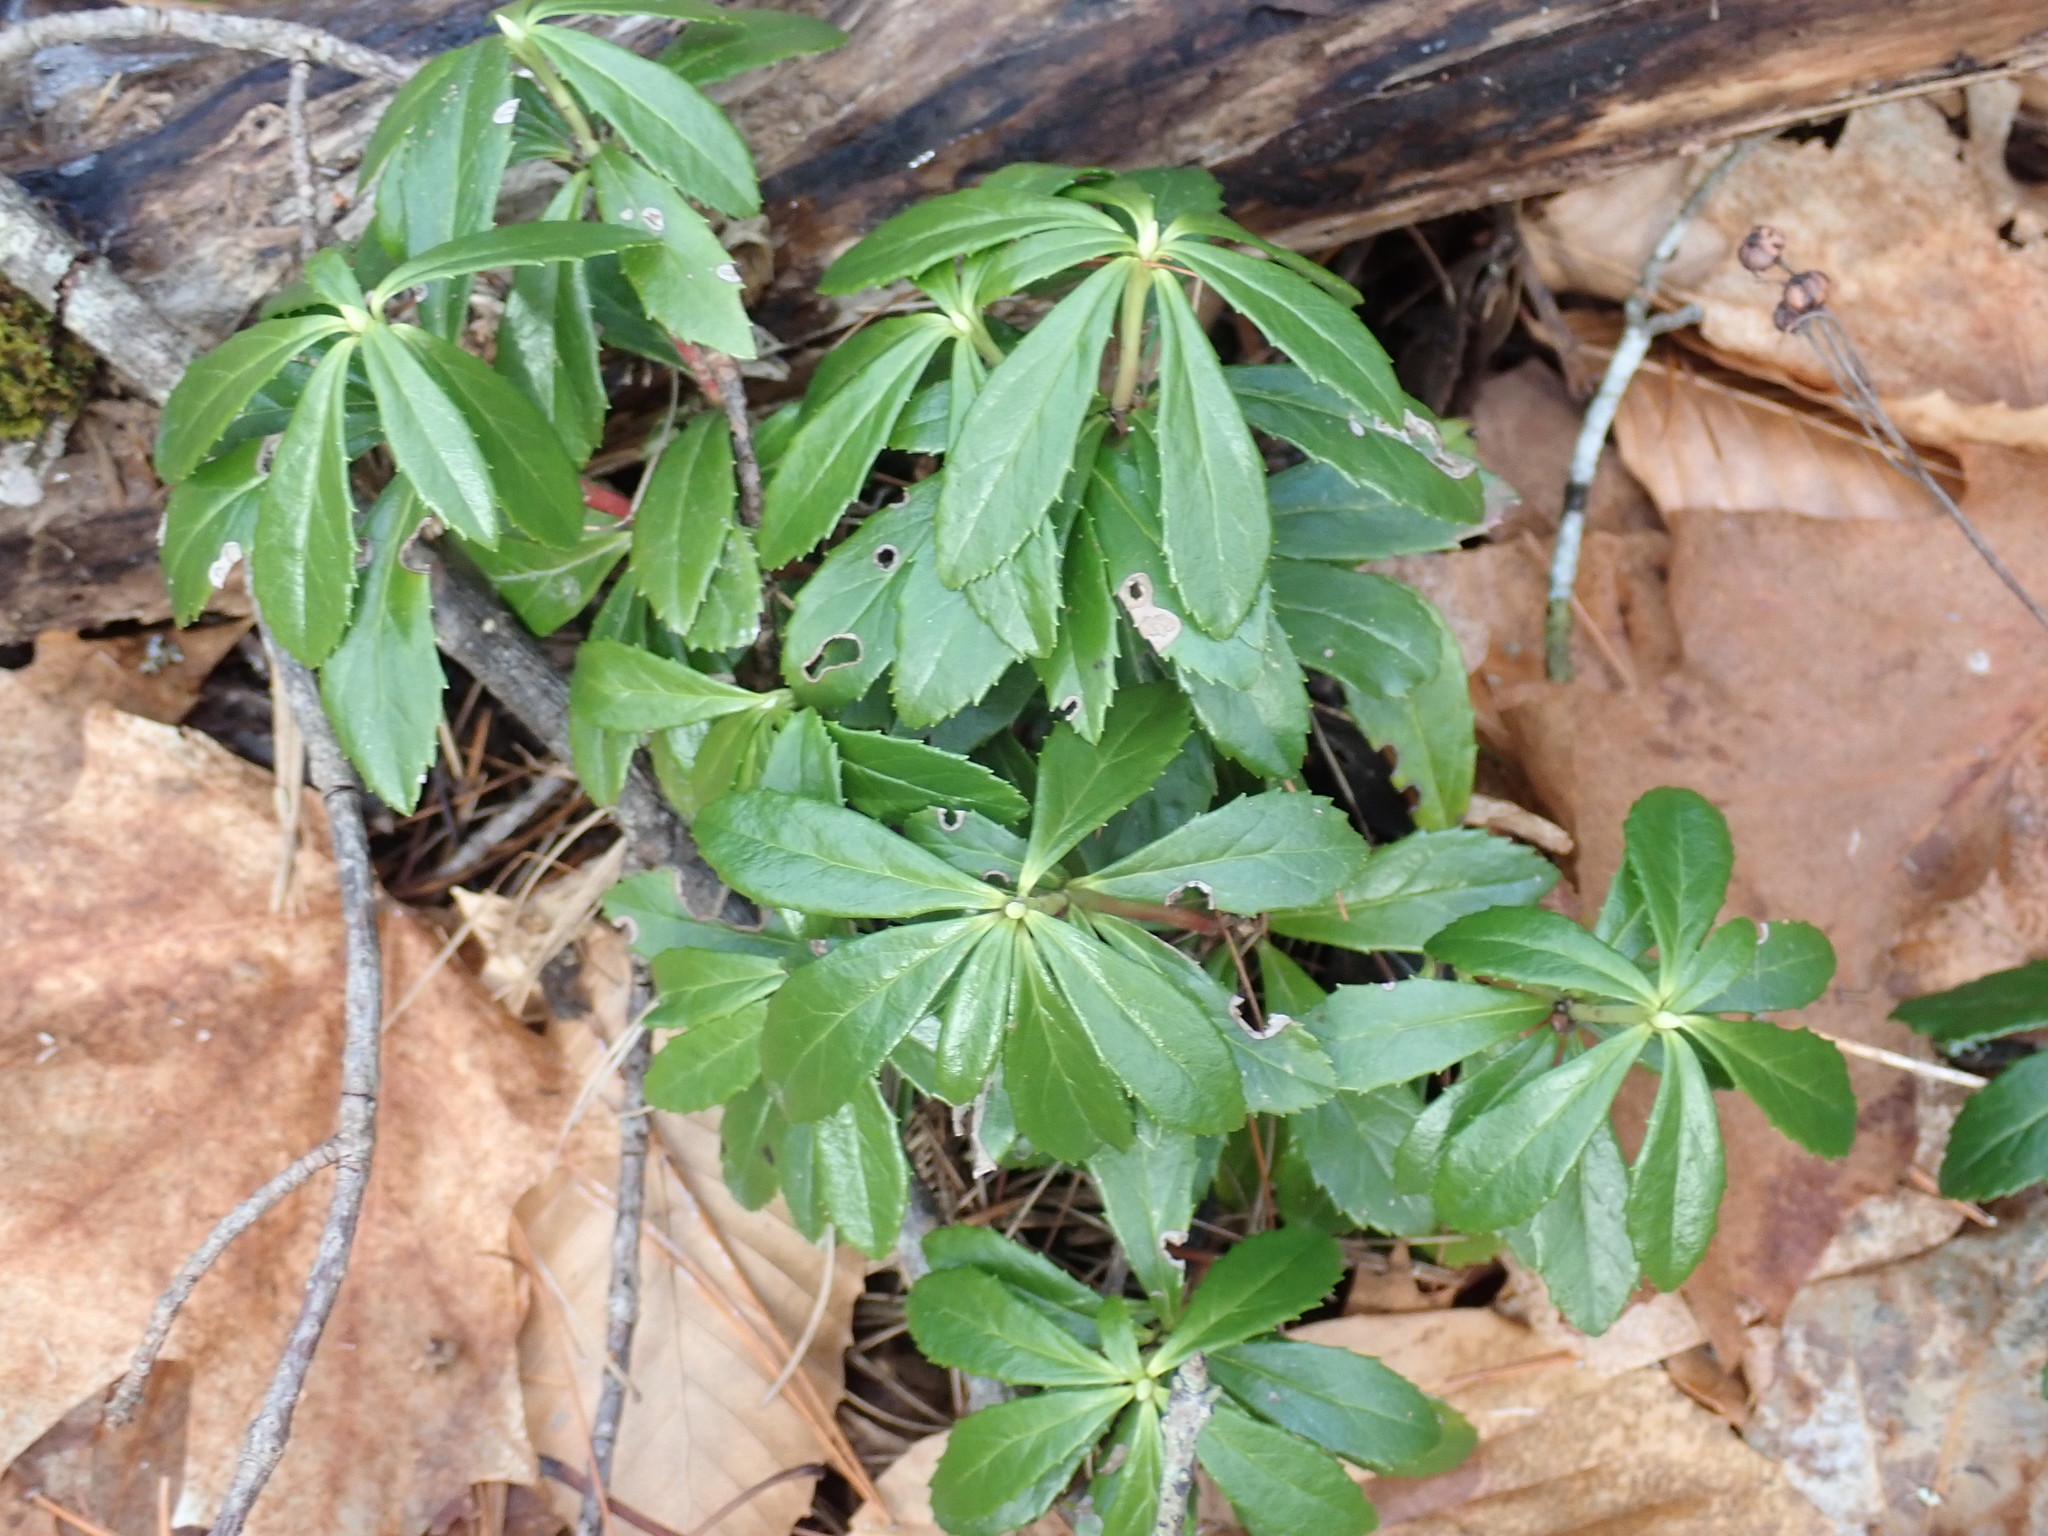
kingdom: Plantae
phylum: Tracheophyta
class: Magnoliopsida
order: Ericales
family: Ericaceae
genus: Chimaphila
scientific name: Chimaphila umbellata
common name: Pipsissewa
